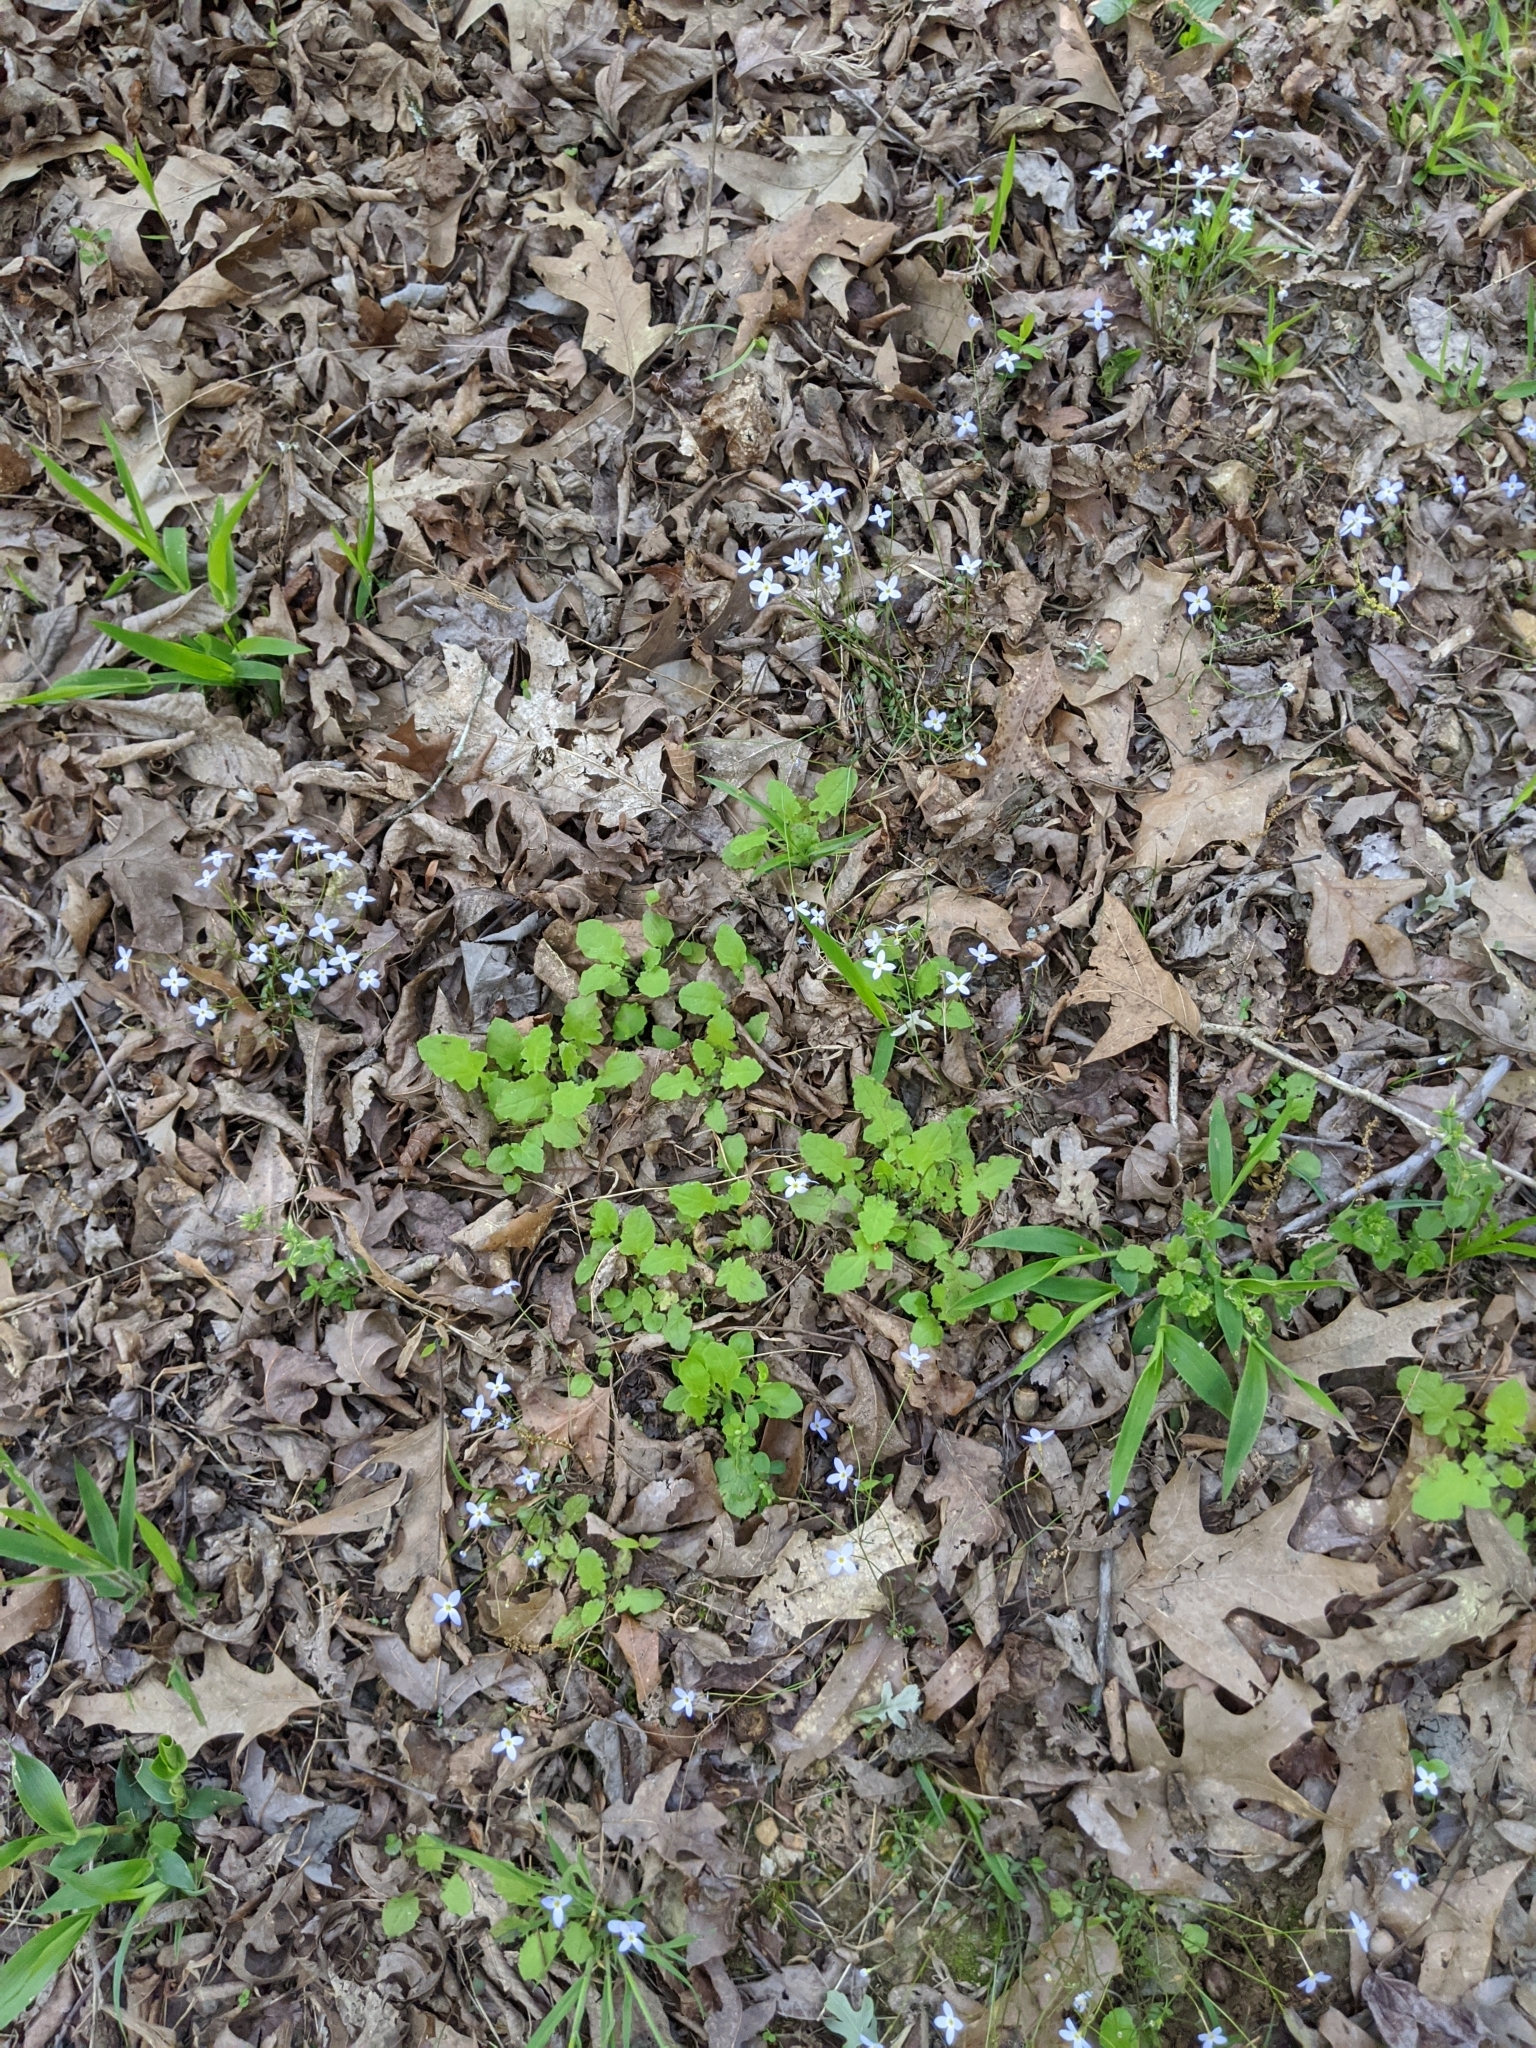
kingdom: Plantae
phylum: Tracheophyta
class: Magnoliopsida
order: Asterales
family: Asteraceae
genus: Youngia
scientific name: Youngia japonica
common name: Oriental false hawksbeard
